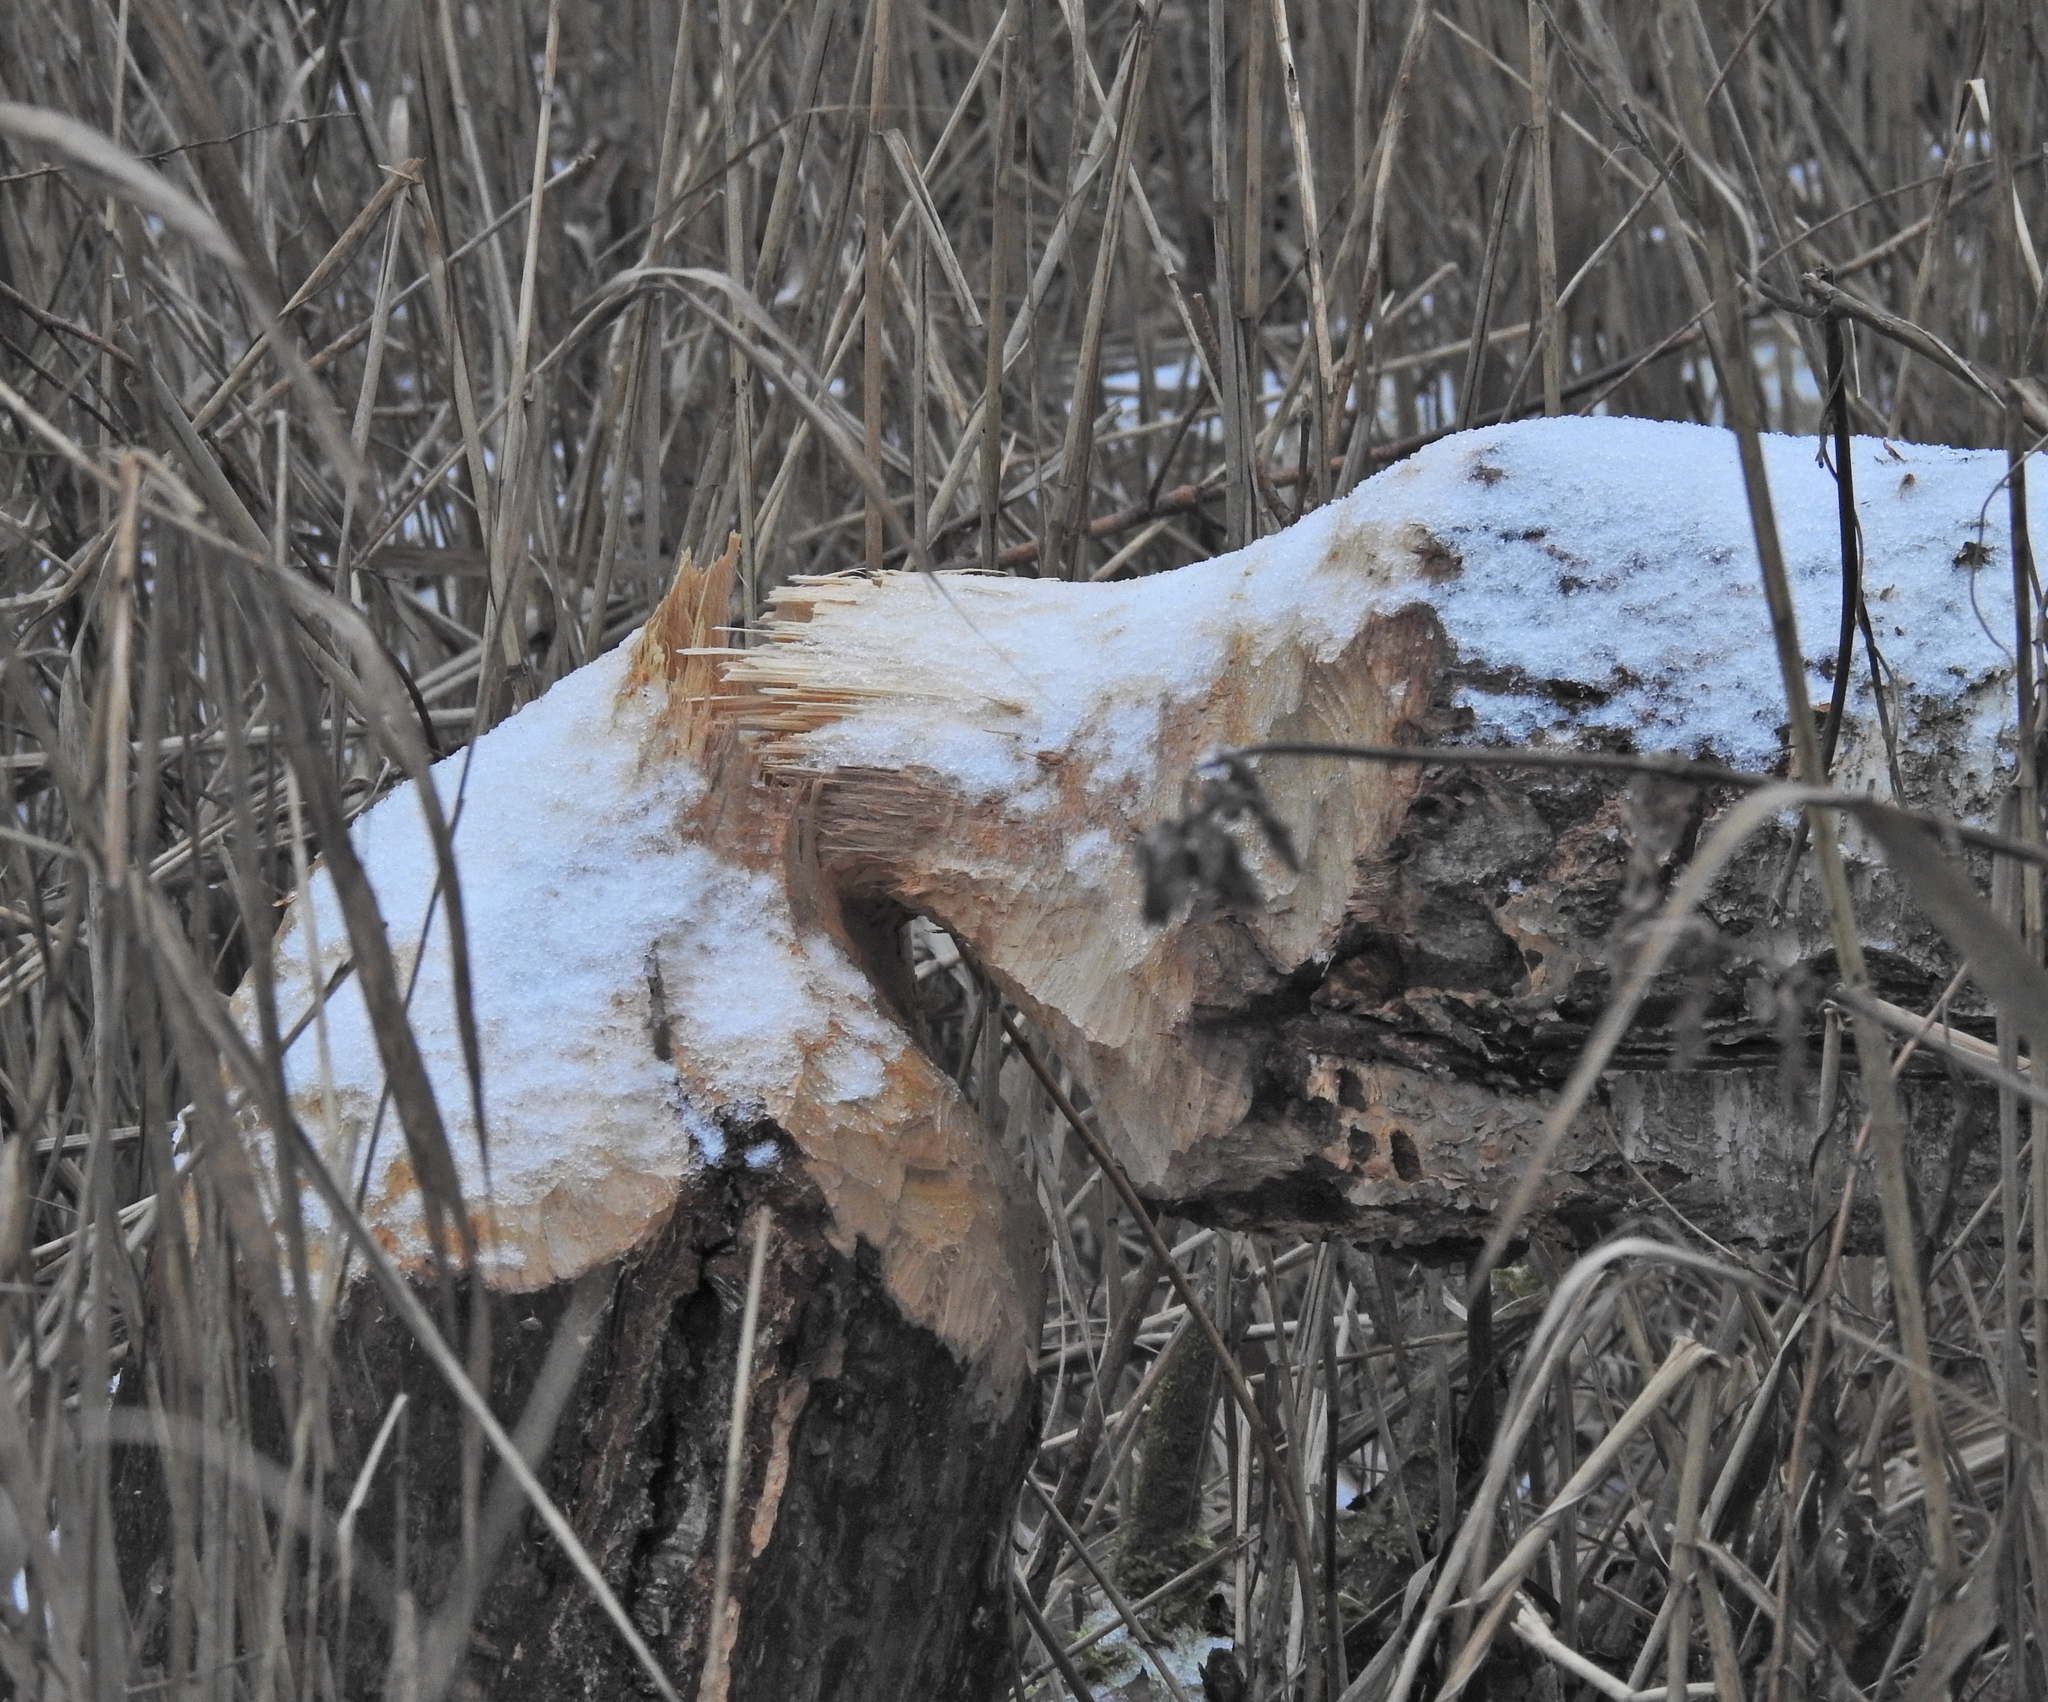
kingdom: Animalia
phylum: Chordata
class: Mammalia
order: Rodentia
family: Castoridae
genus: Castor
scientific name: Castor fiber
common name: Eurasian beaver
